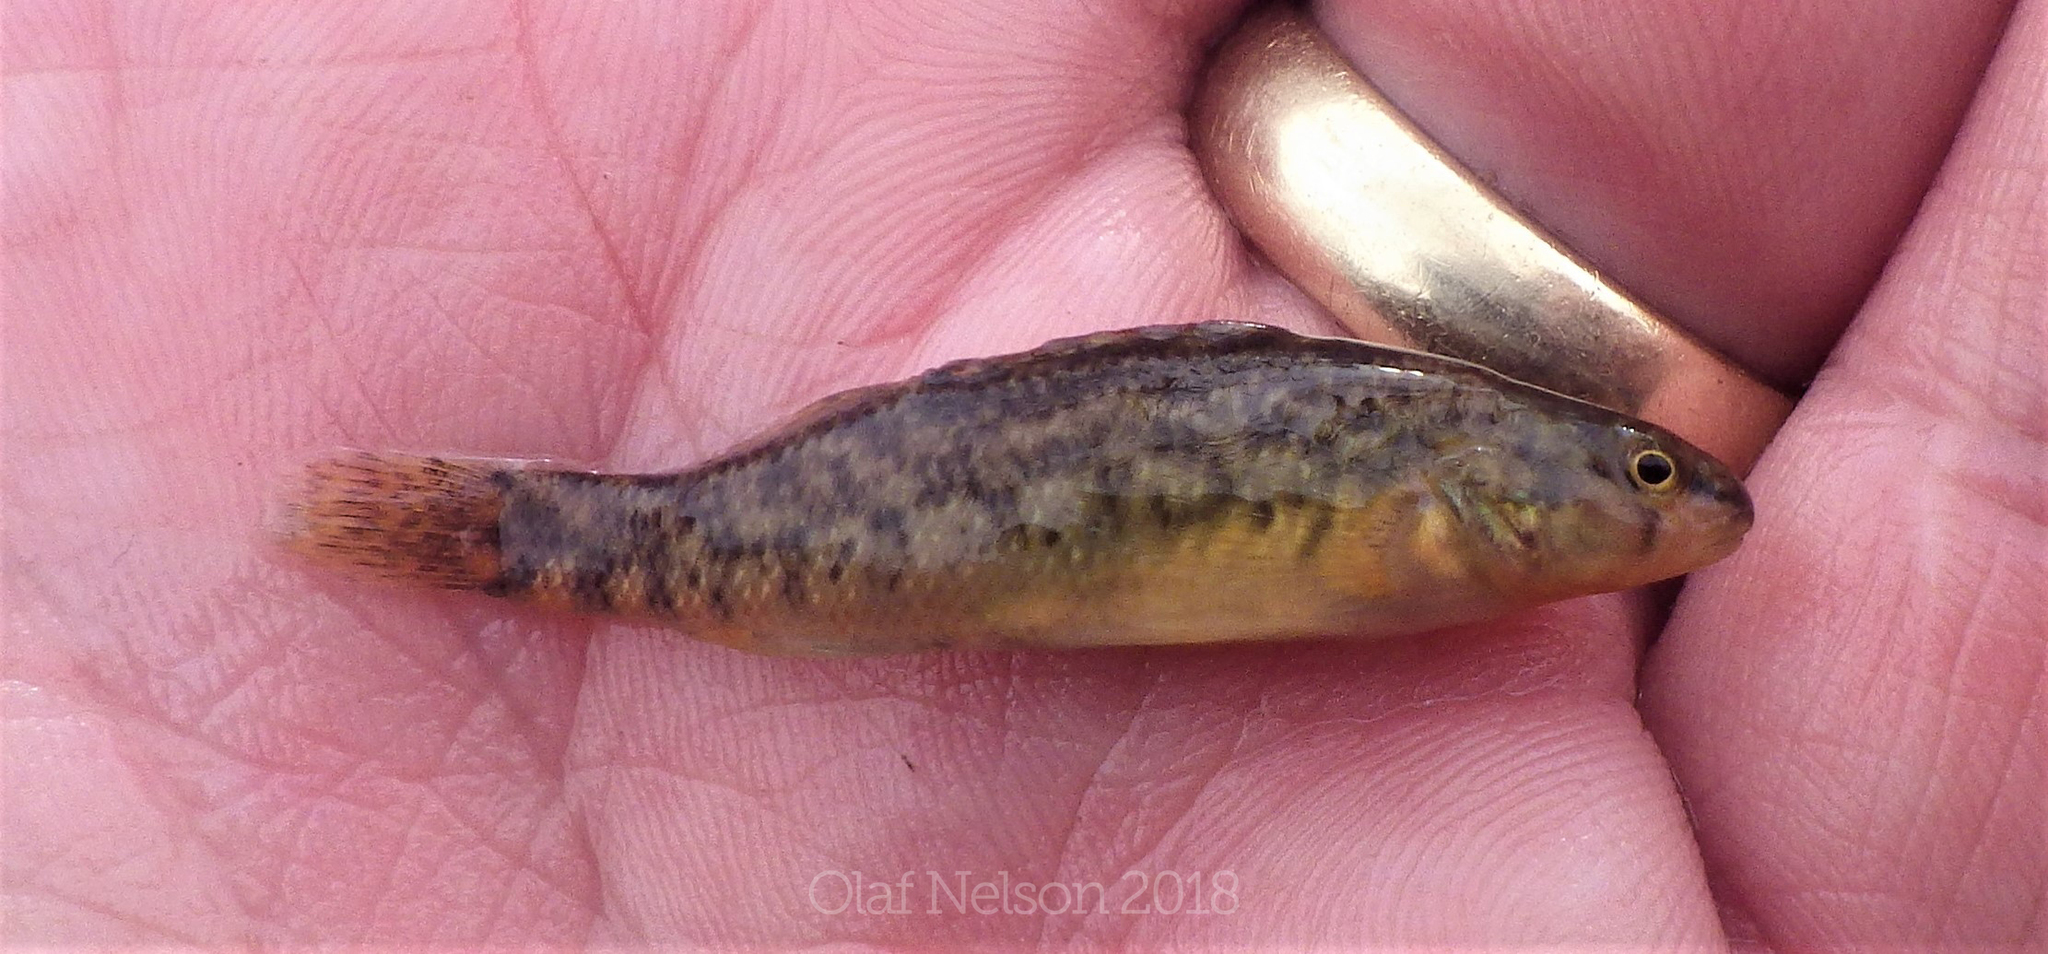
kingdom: Animalia
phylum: Chordata
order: Perciformes
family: Percidae
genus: Etheostoma
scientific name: Etheostoma caeruleum
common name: Rainbow darter
